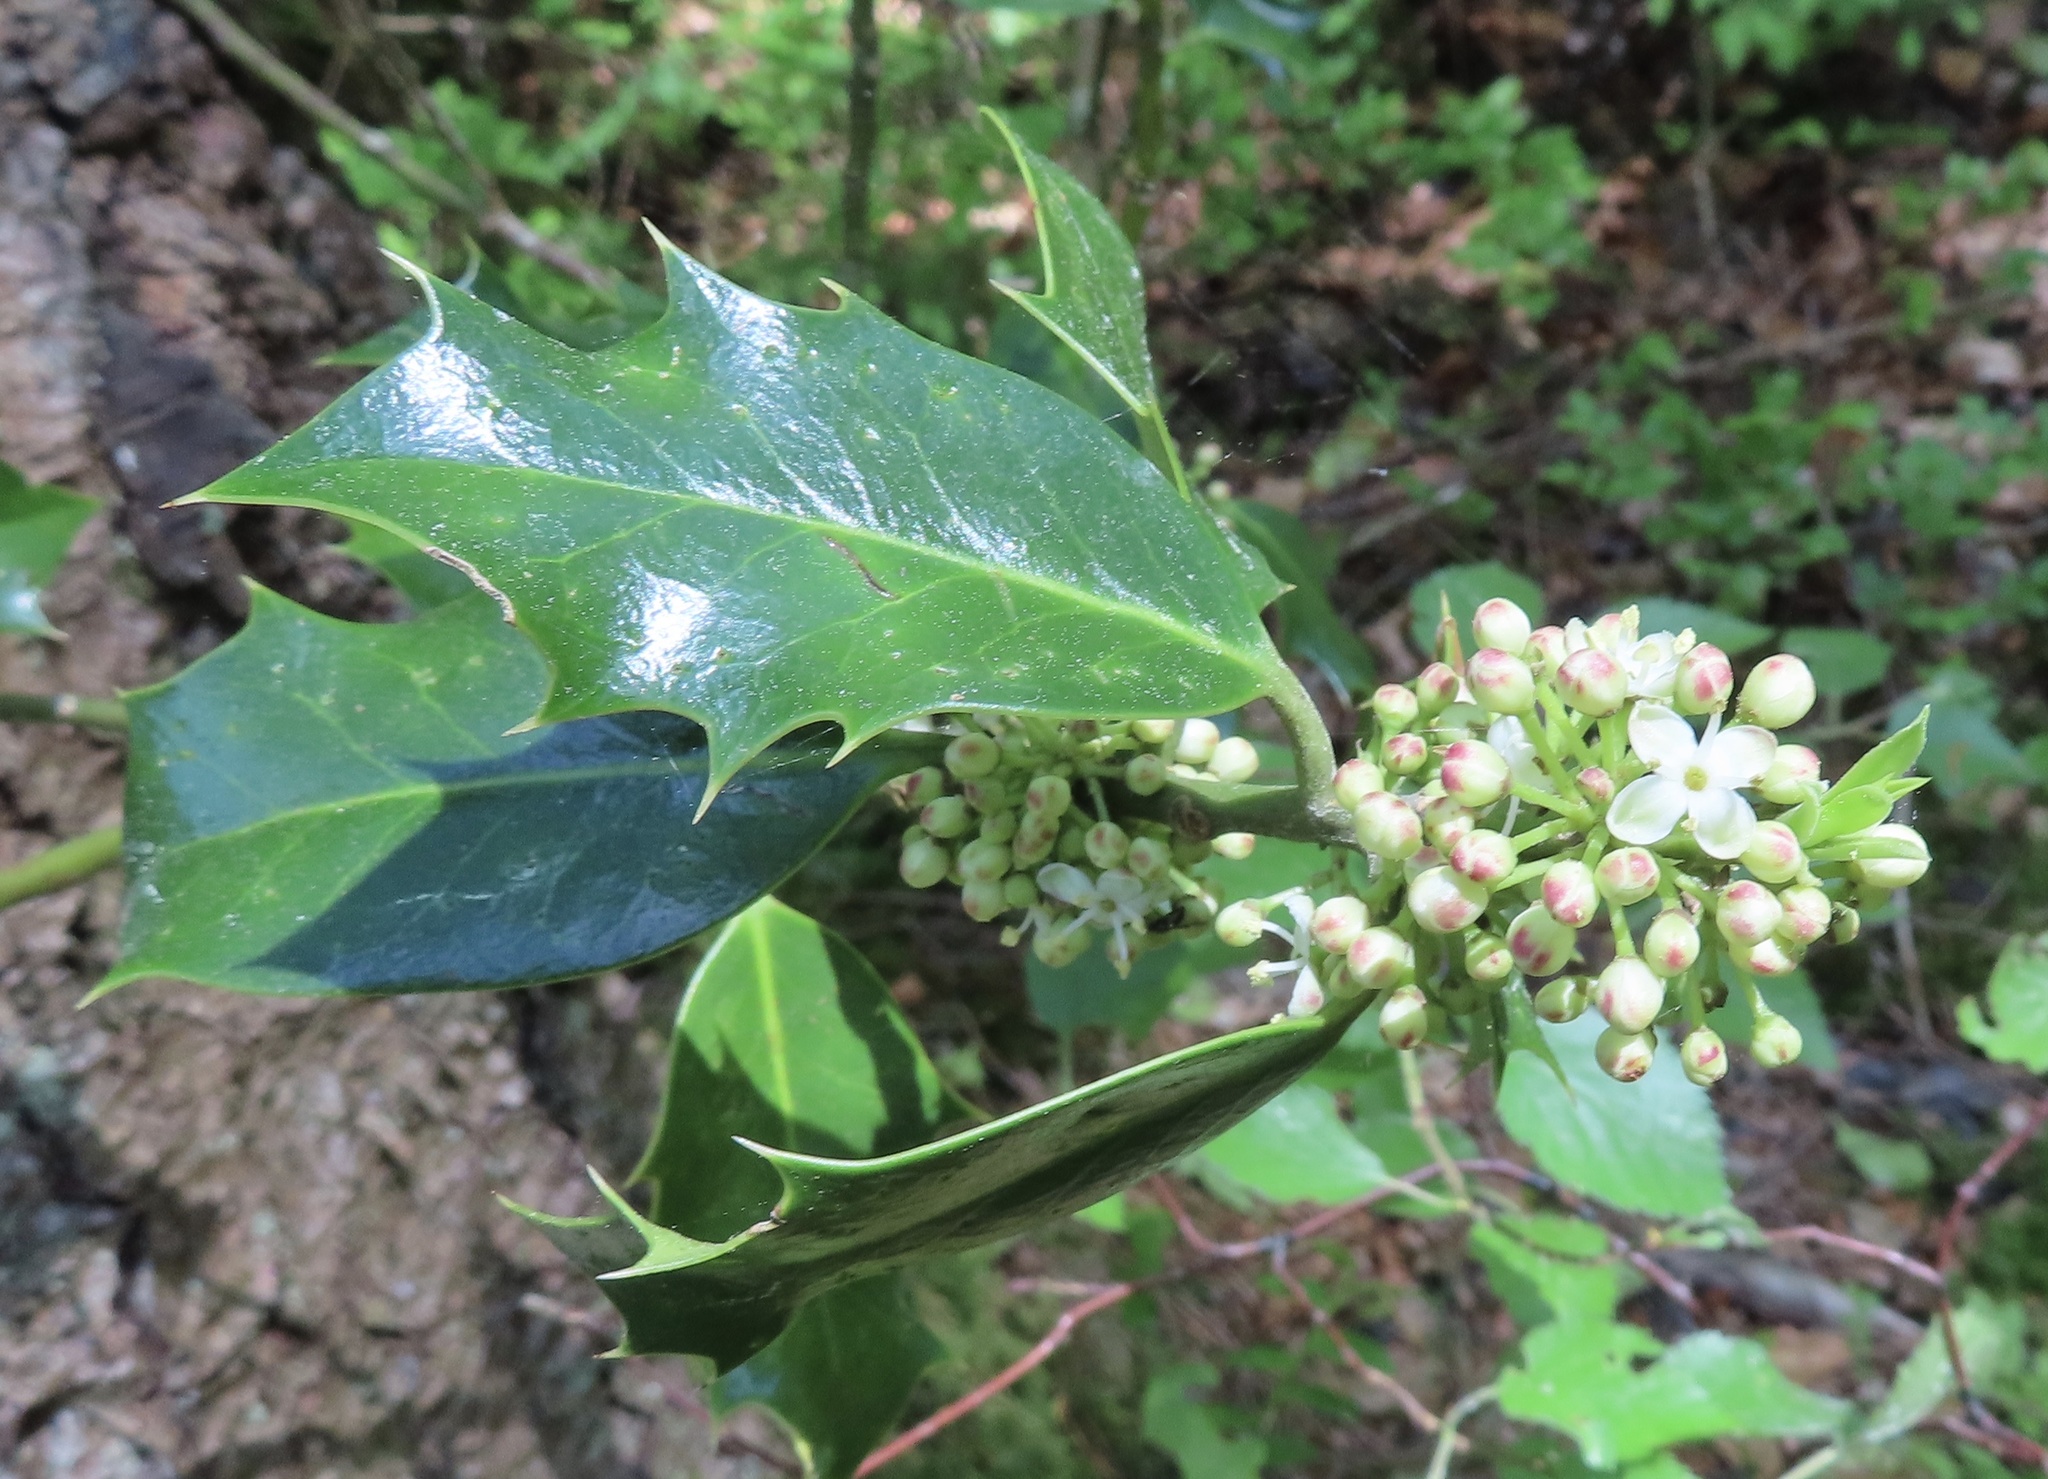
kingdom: Plantae
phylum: Tracheophyta
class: Magnoliopsida
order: Aquifoliales
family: Aquifoliaceae
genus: Ilex
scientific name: Ilex aquifolium
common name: English holly
